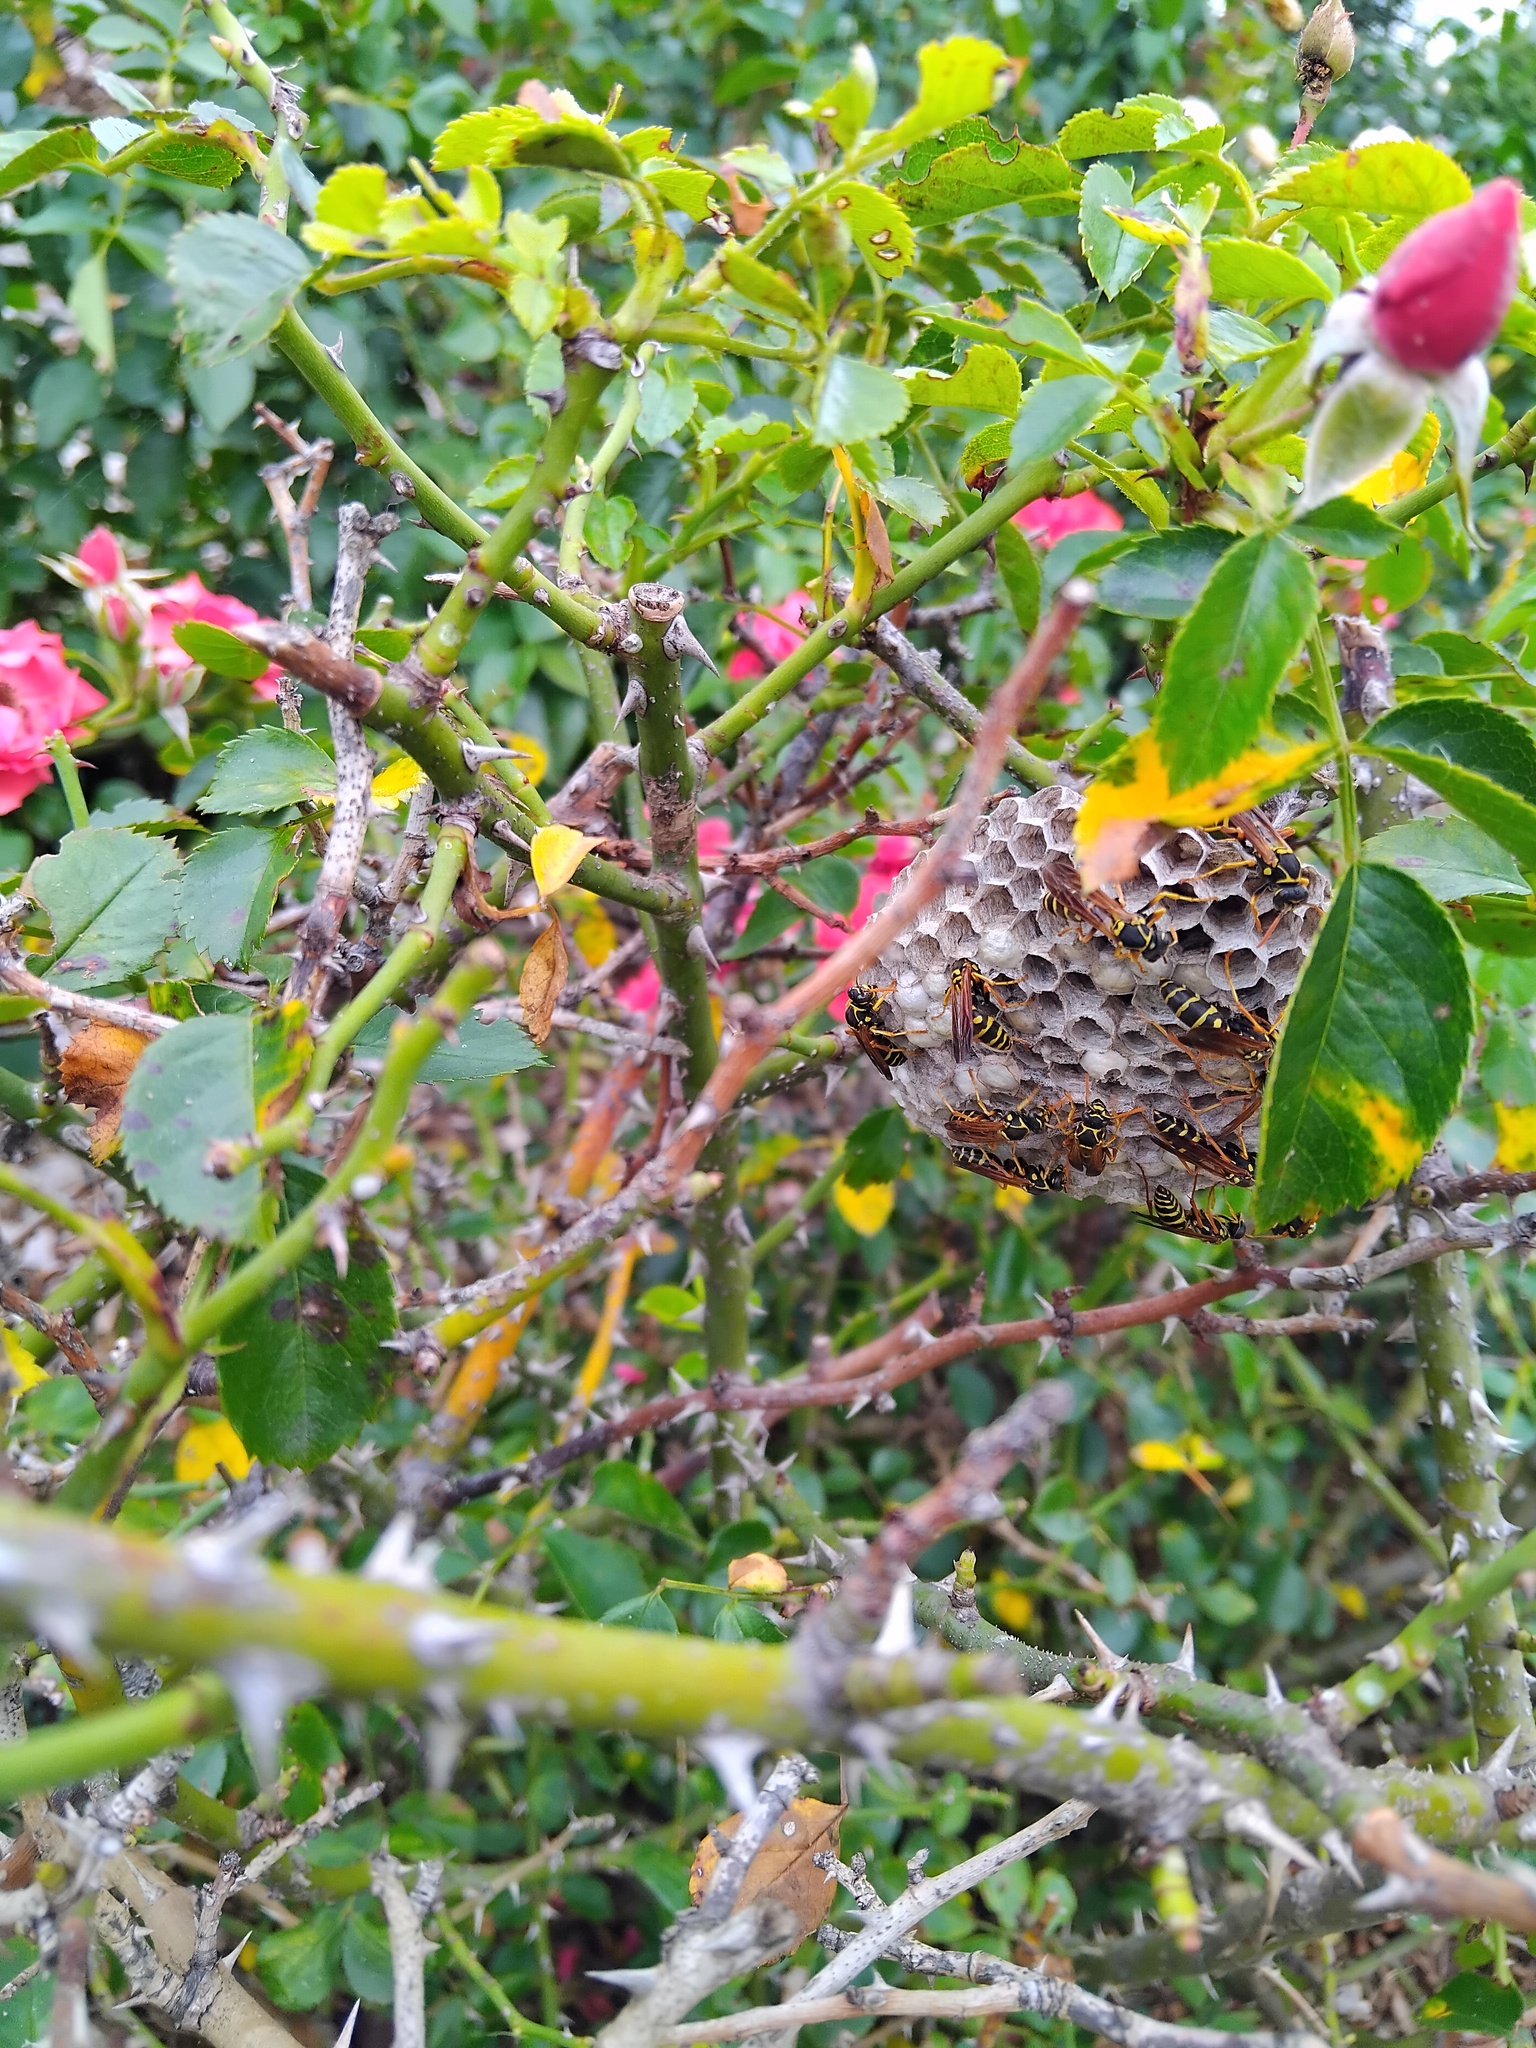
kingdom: Animalia
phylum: Arthropoda
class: Insecta
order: Hymenoptera
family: Eumenidae
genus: Polistes
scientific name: Polistes chinensis
